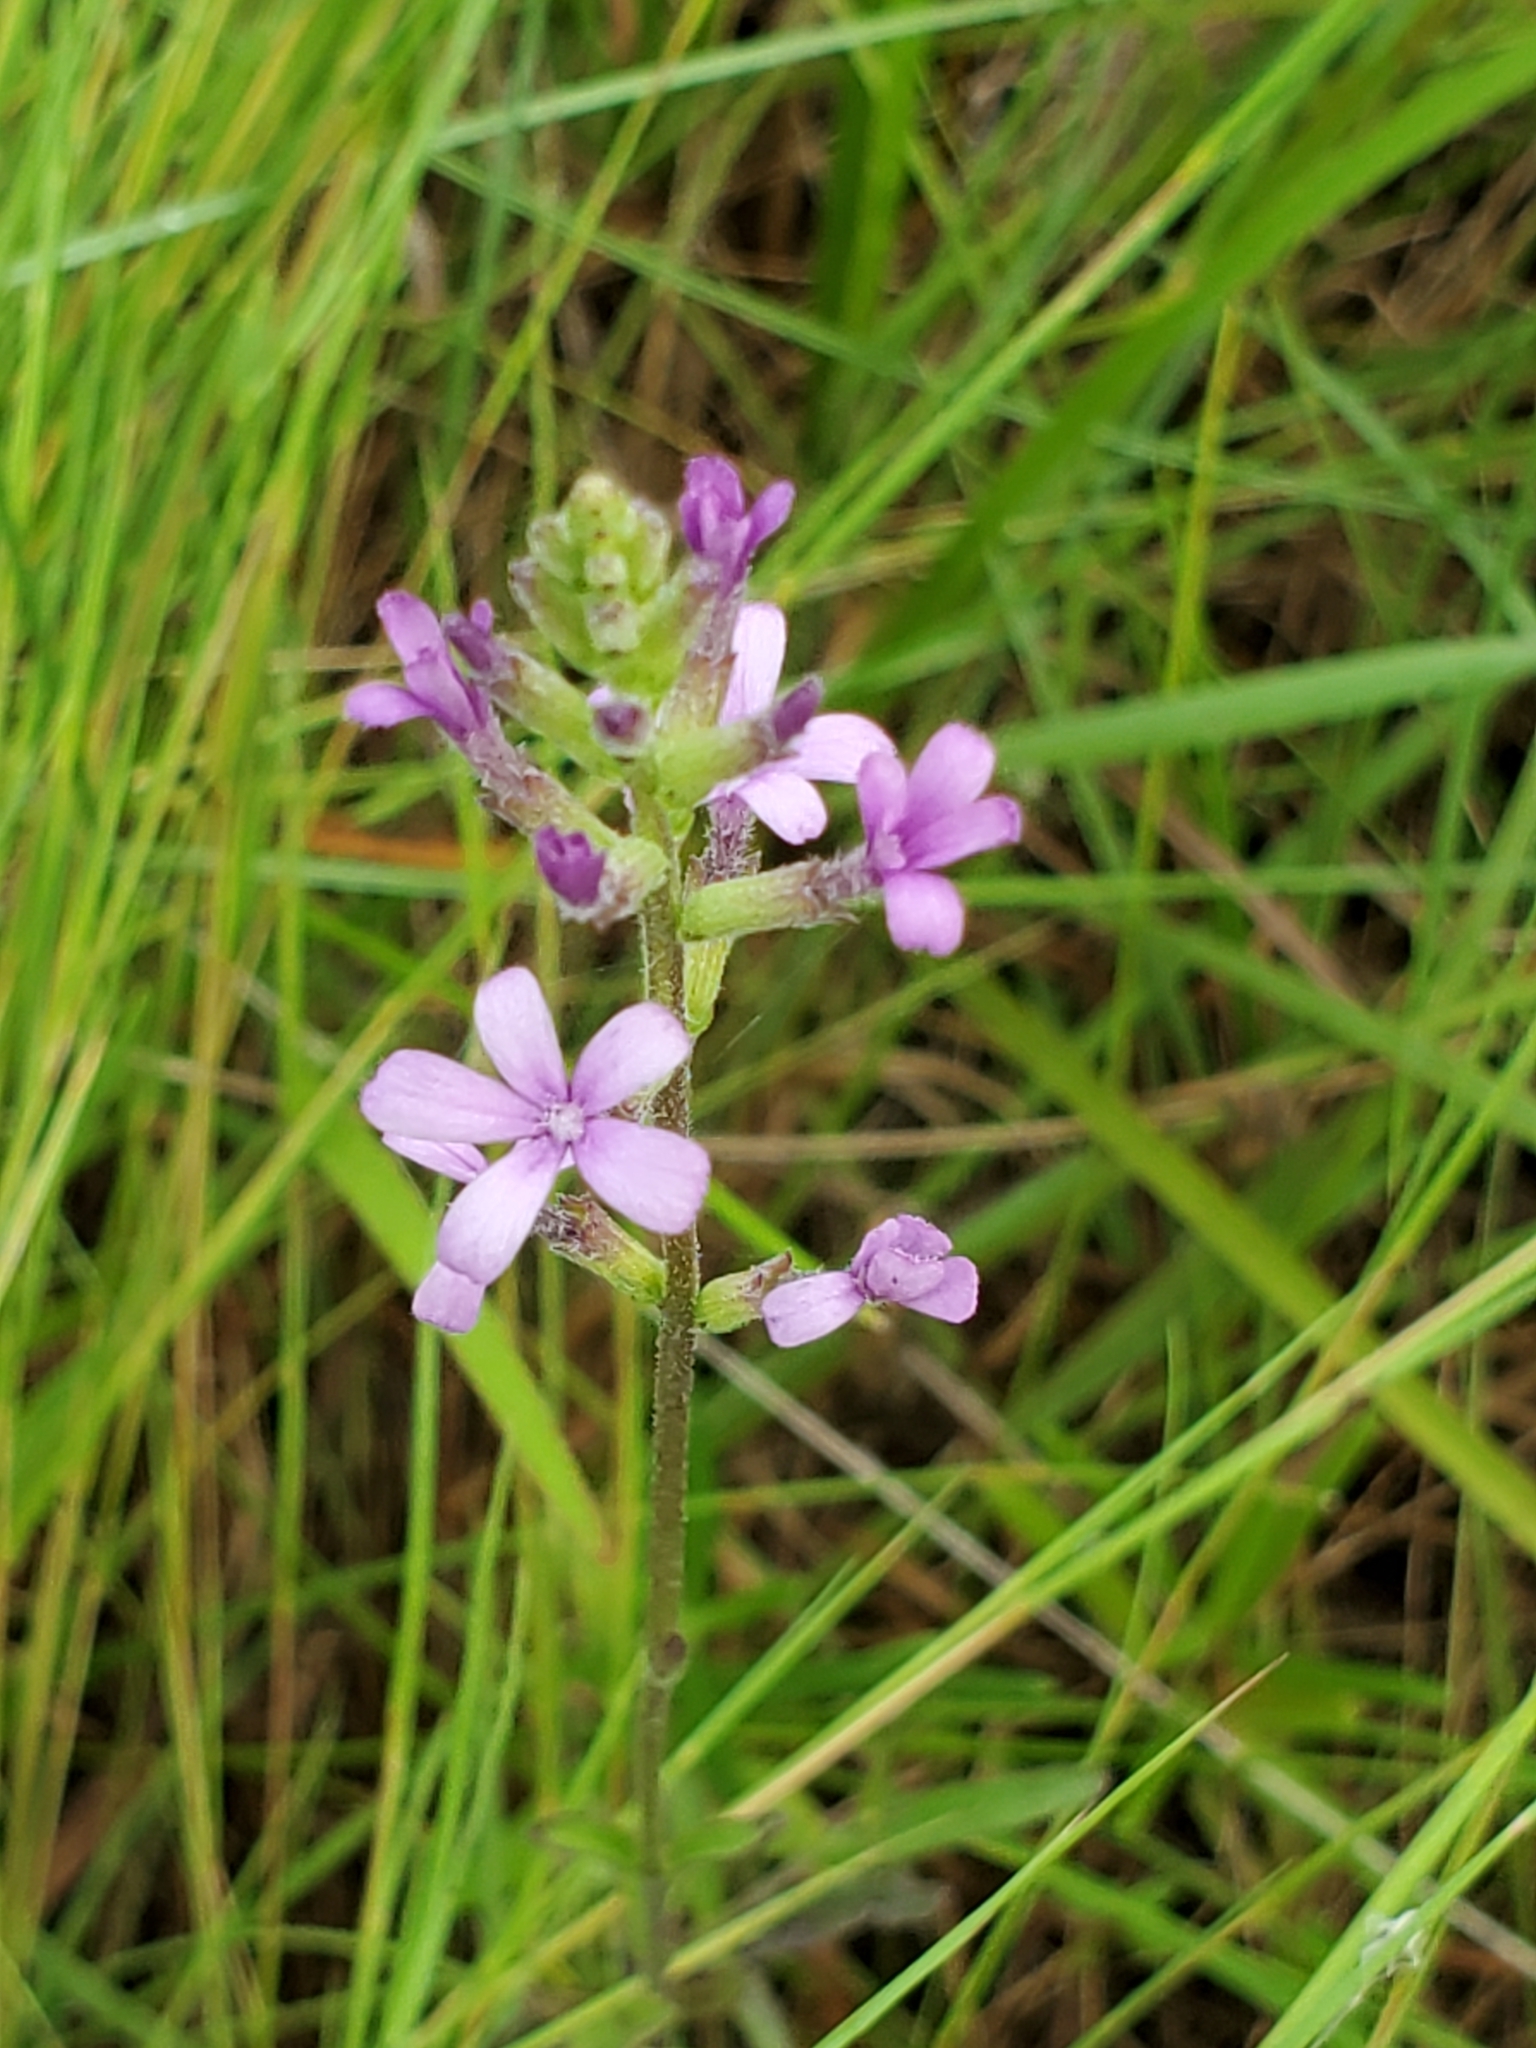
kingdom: Plantae
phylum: Tracheophyta
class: Magnoliopsida
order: Lamiales
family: Orobanchaceae
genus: Buchnera
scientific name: Buchnera floridana
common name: Florida bluehearts
